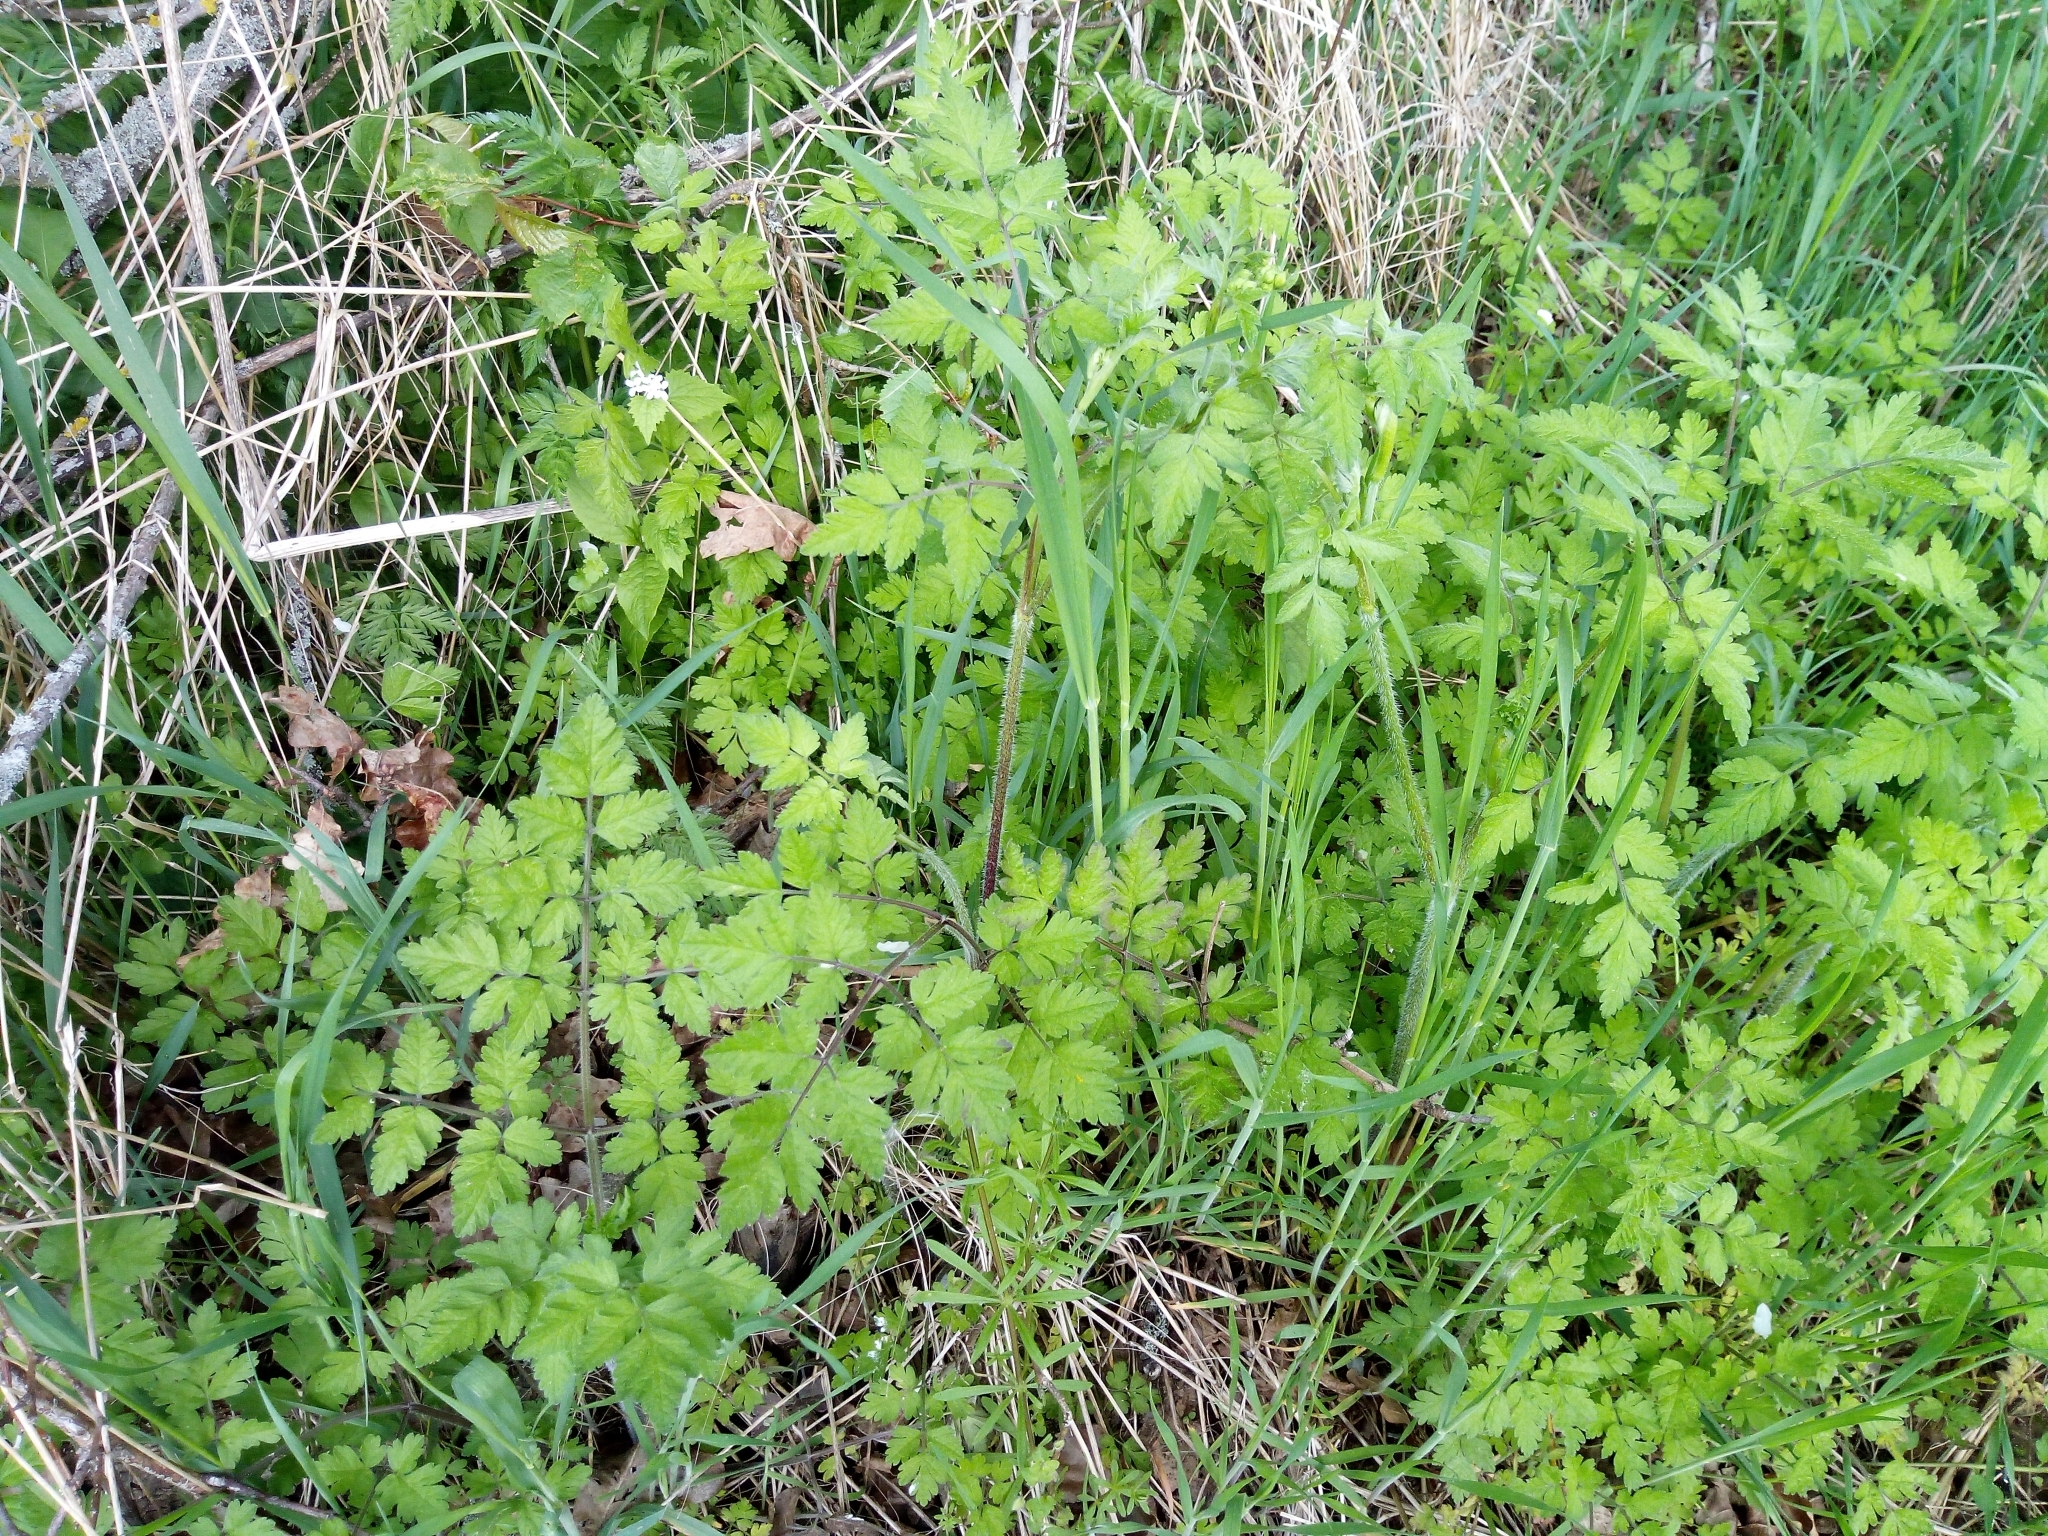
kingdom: Plantae
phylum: Tracheophyta
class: Magnoliopsida
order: Apiales
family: Apiaceae
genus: Chaerophyllum
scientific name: Chaerophyllum temulum
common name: Rough chervil
